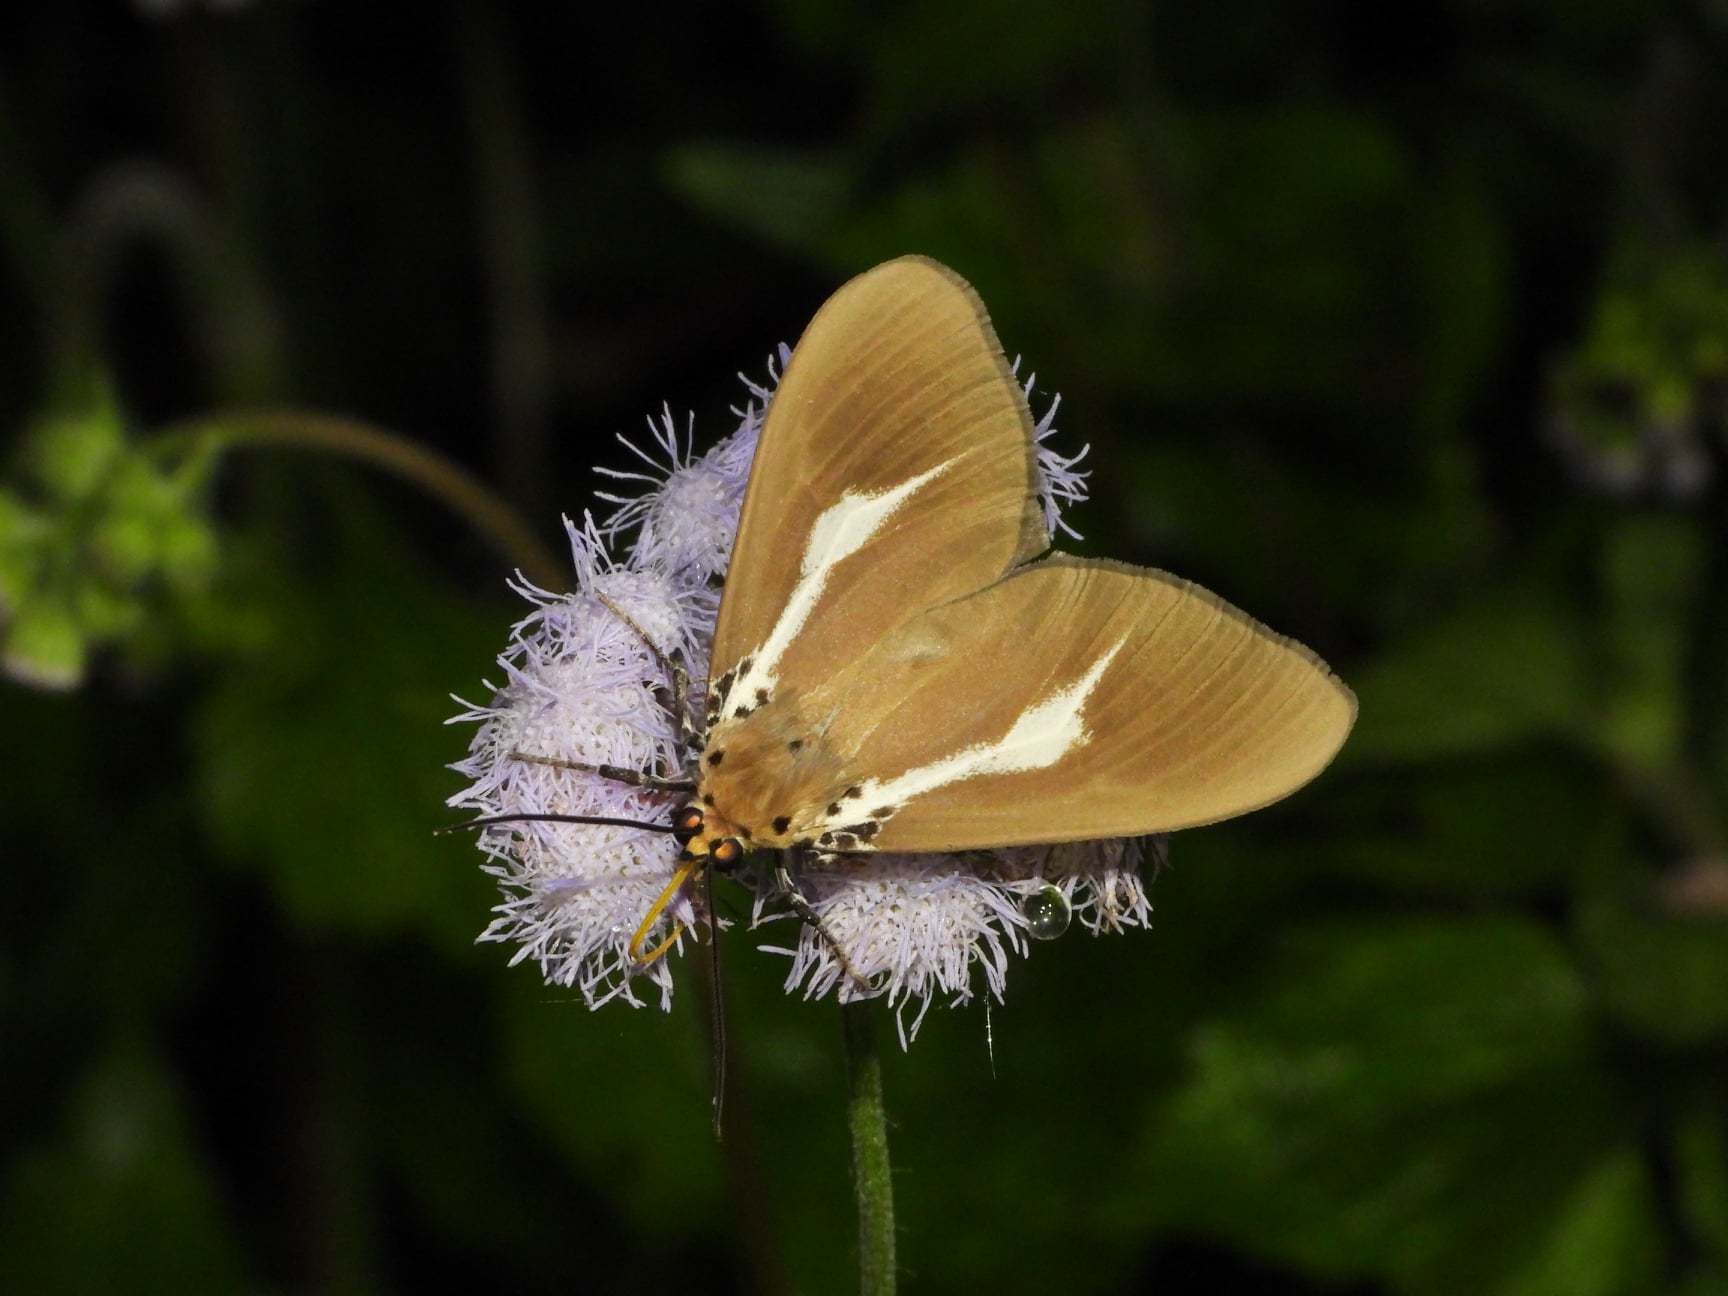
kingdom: Animalia
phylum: Arthropoda
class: Insecta
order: Lepidoptera
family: Erebidae
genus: Asota
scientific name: Asota heliconia
